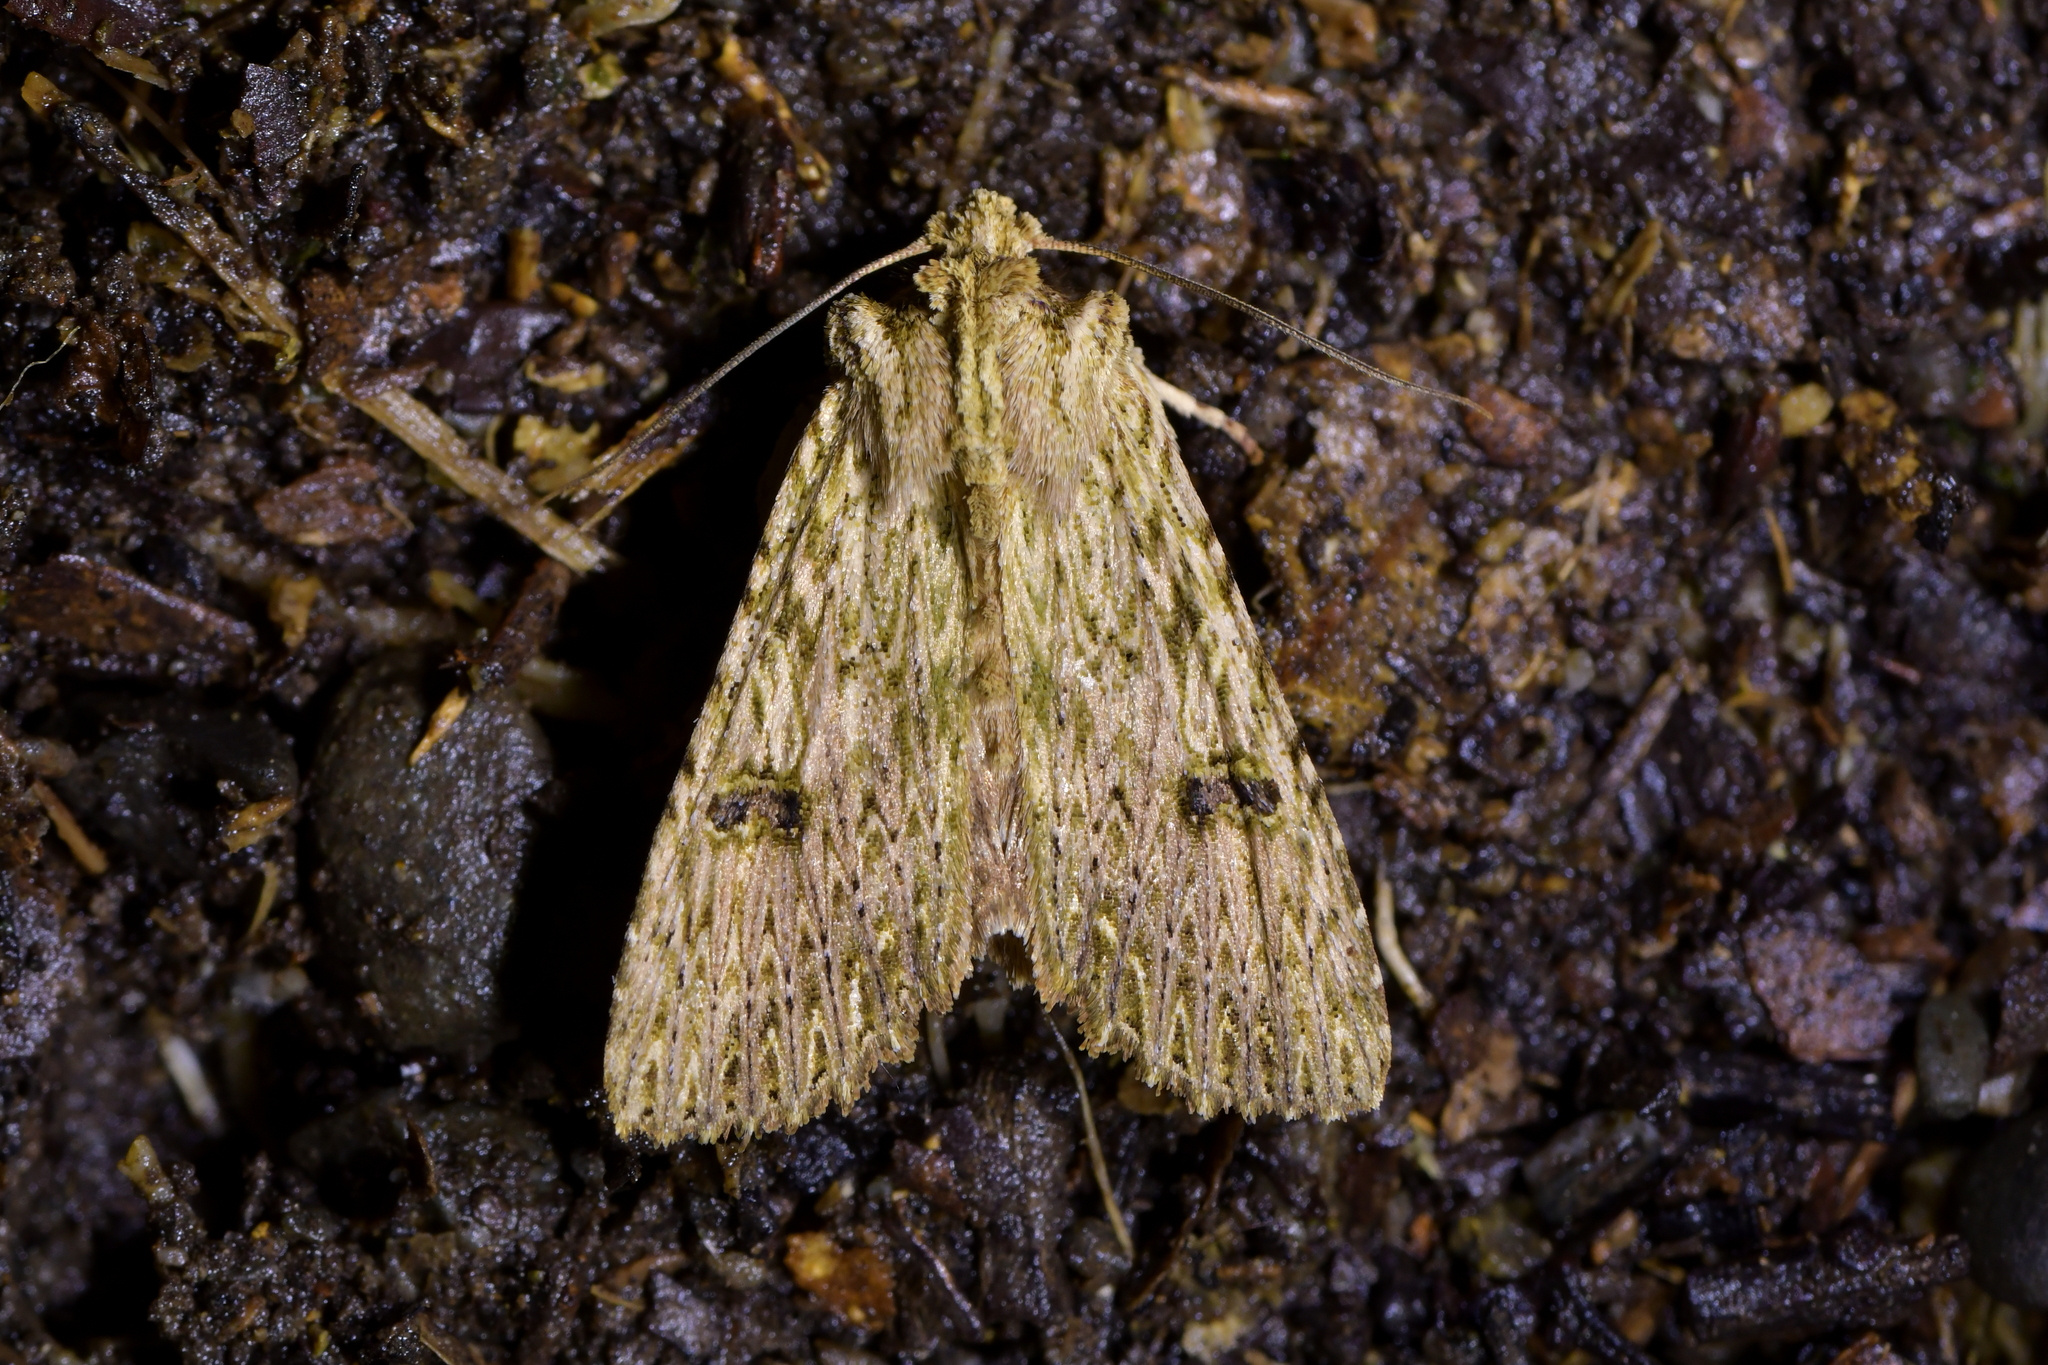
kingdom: Animalia
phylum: Arthropoda
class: Insecta
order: Lepidoptera
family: Noctuidae
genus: Meterana
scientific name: Meterana pansicolor
